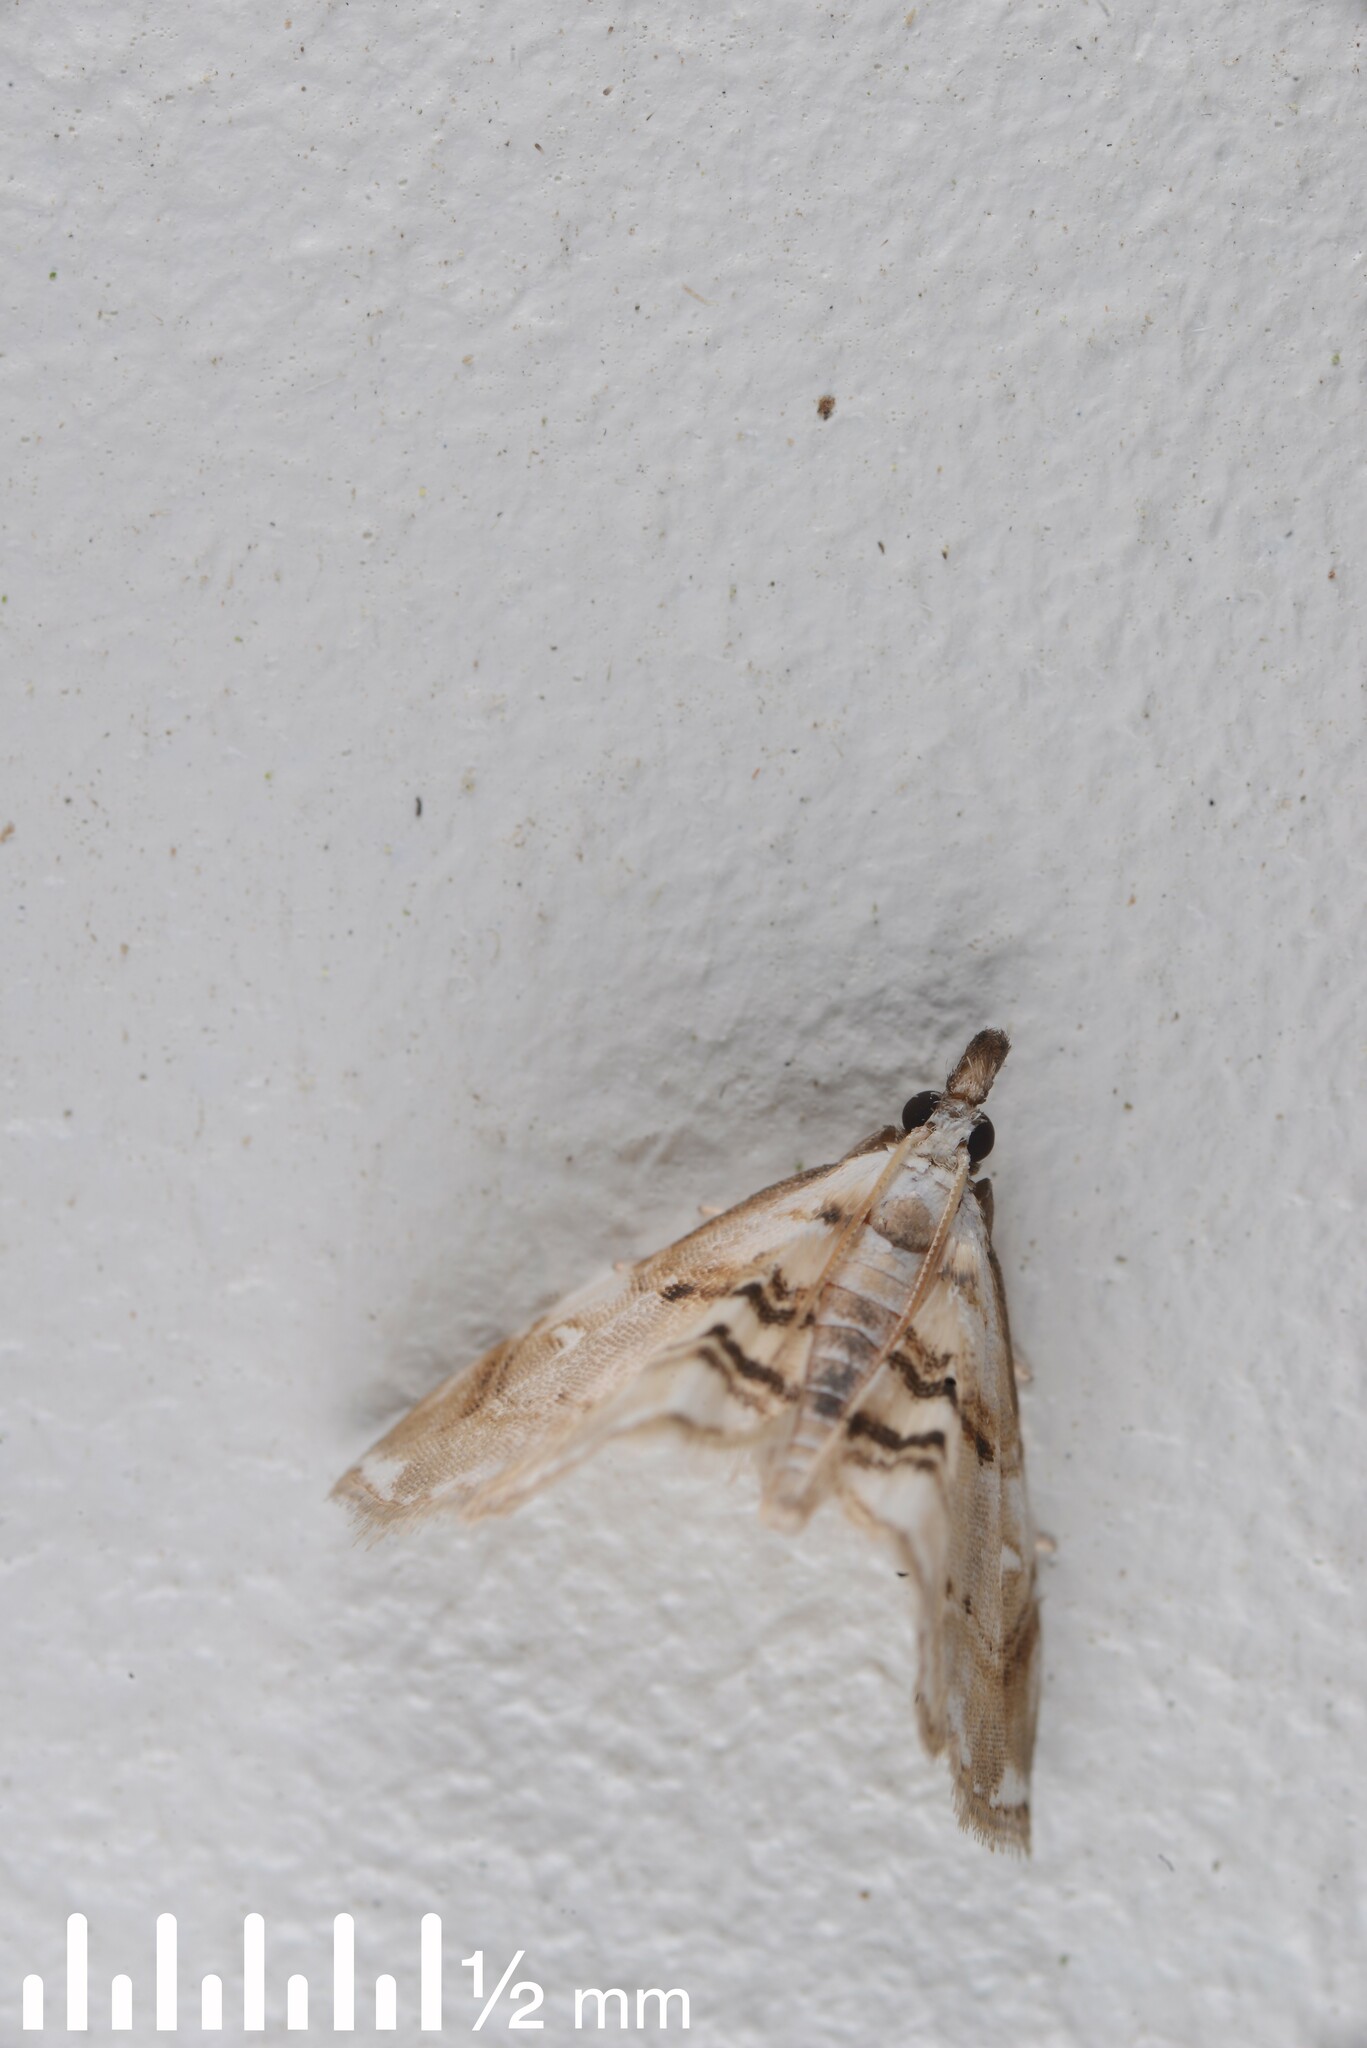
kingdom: Animalia
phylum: Arthropoda
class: Insecta
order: Lepidoptera
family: Crambidae
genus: Trichophysetis
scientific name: Trichophysetis
